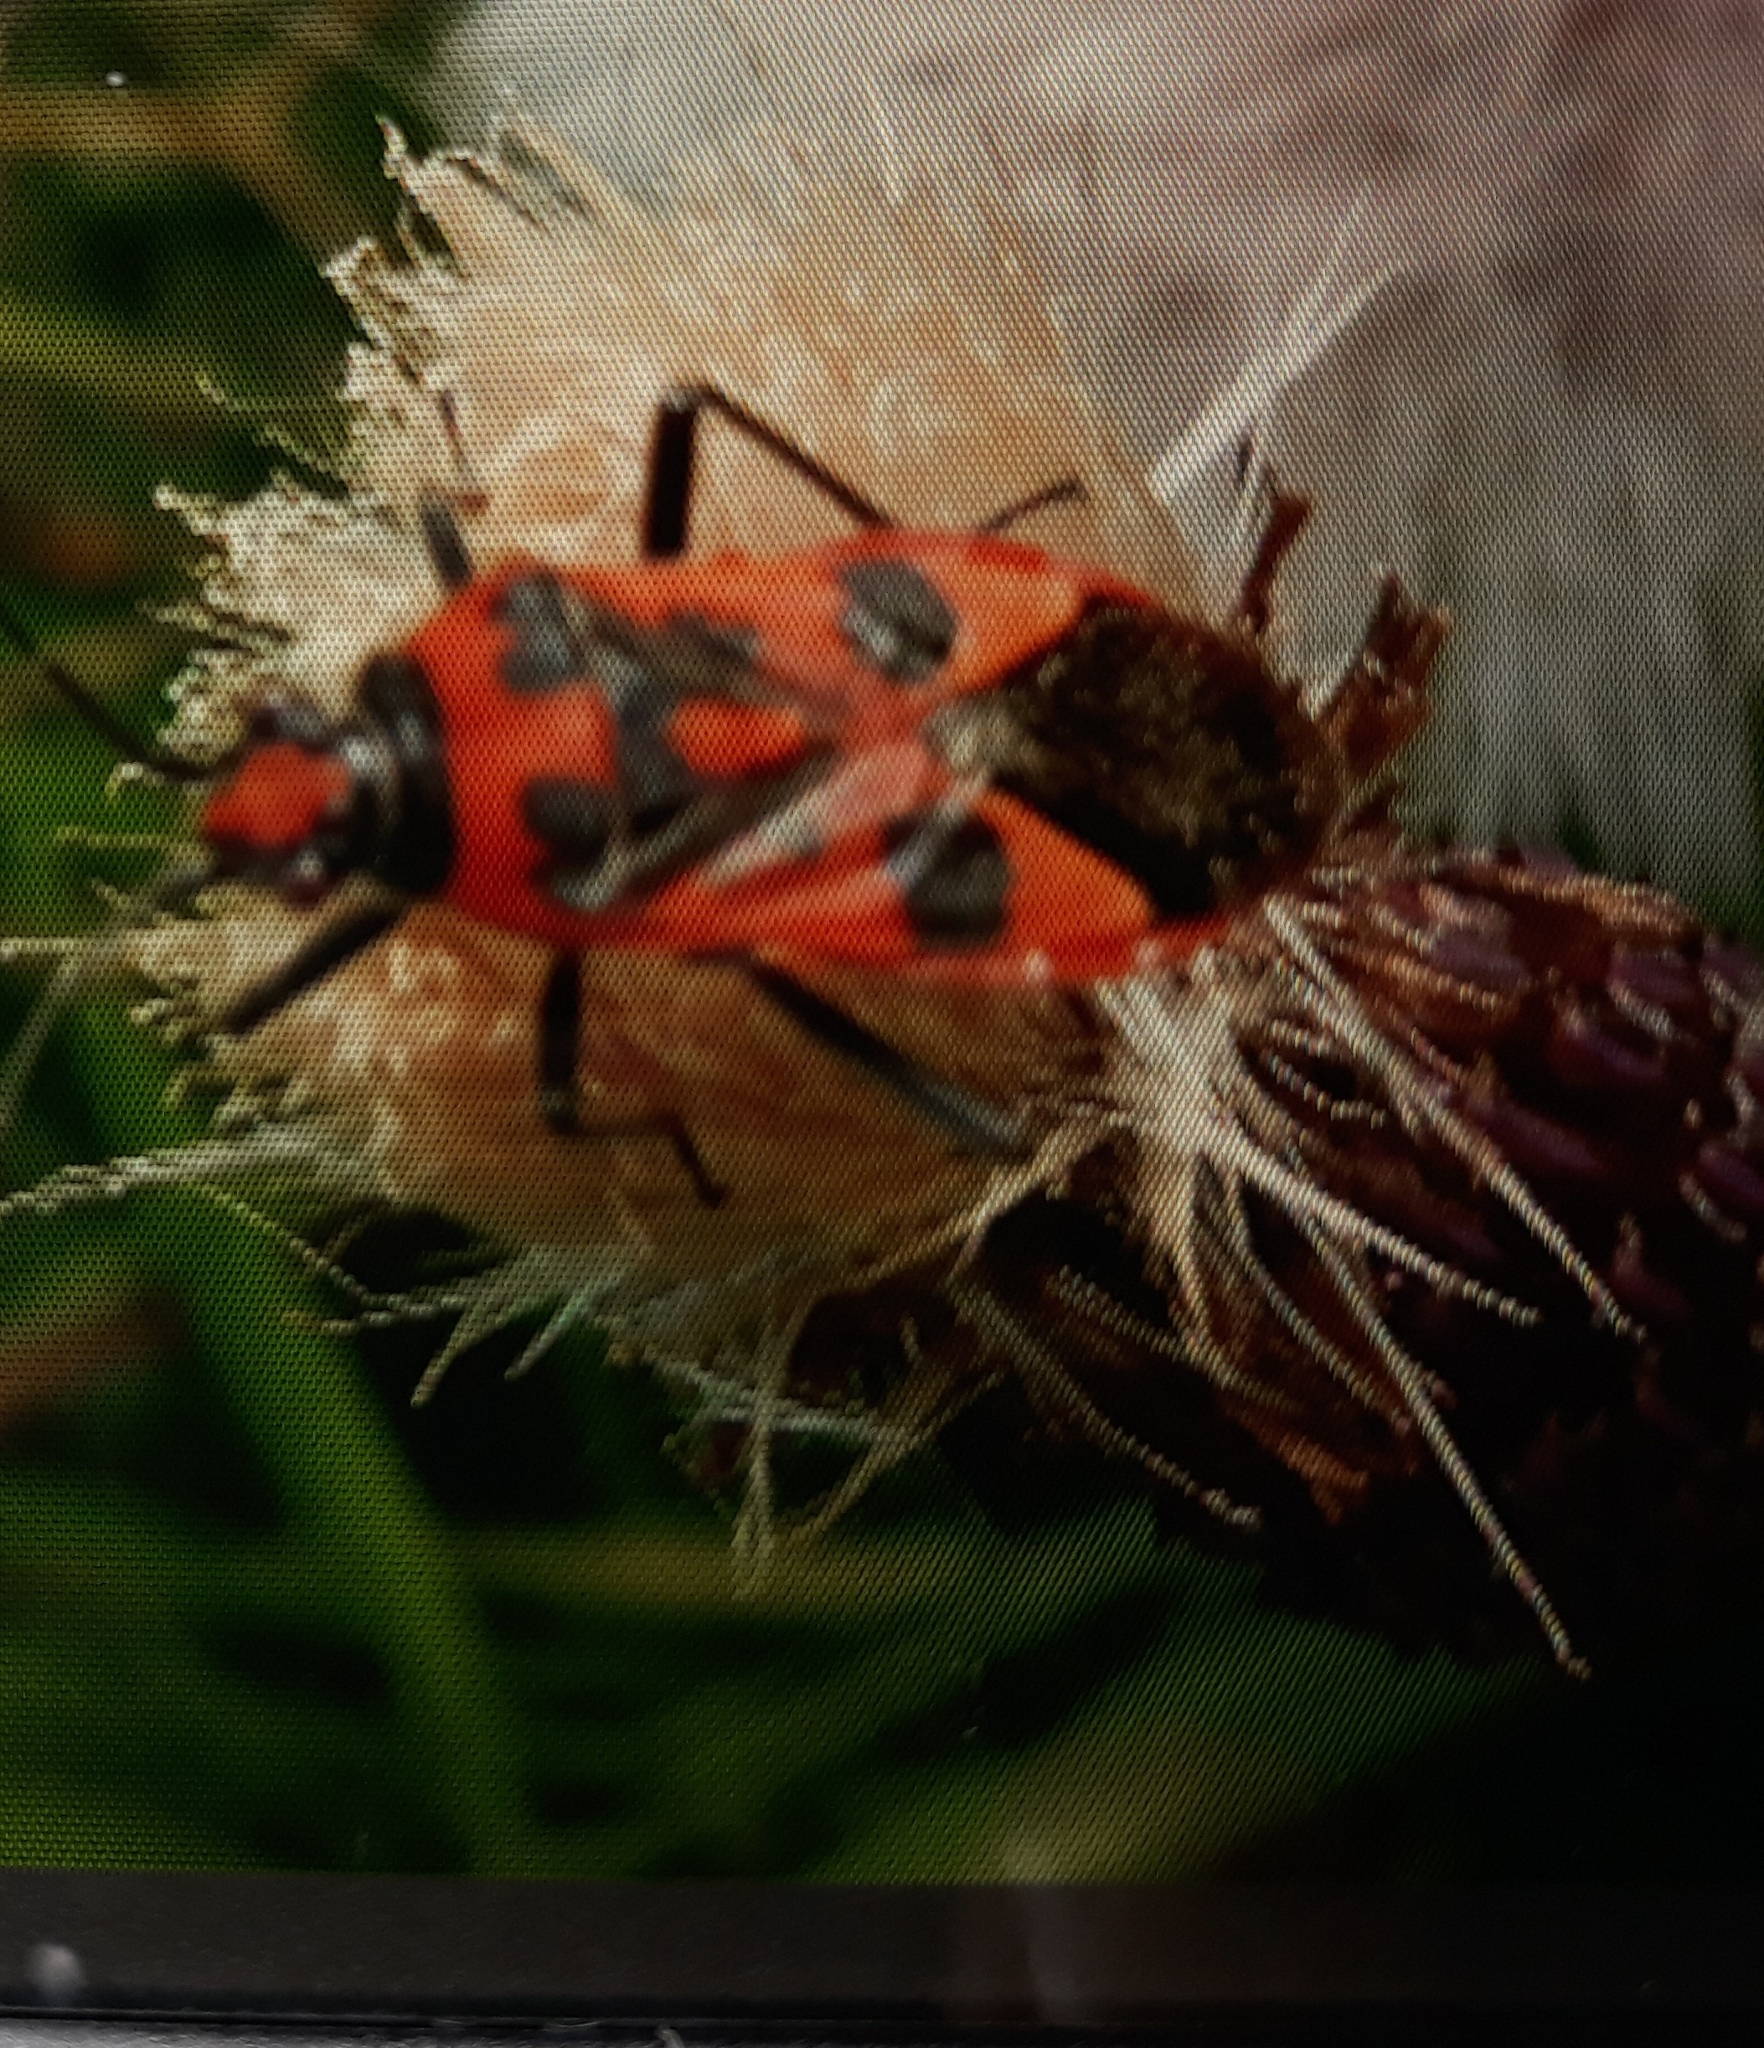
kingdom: Animalia
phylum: Arthropoda
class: Insecta
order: Hemiptera
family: Rhopalidae
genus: Corizus
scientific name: Corizus hyoscyami
